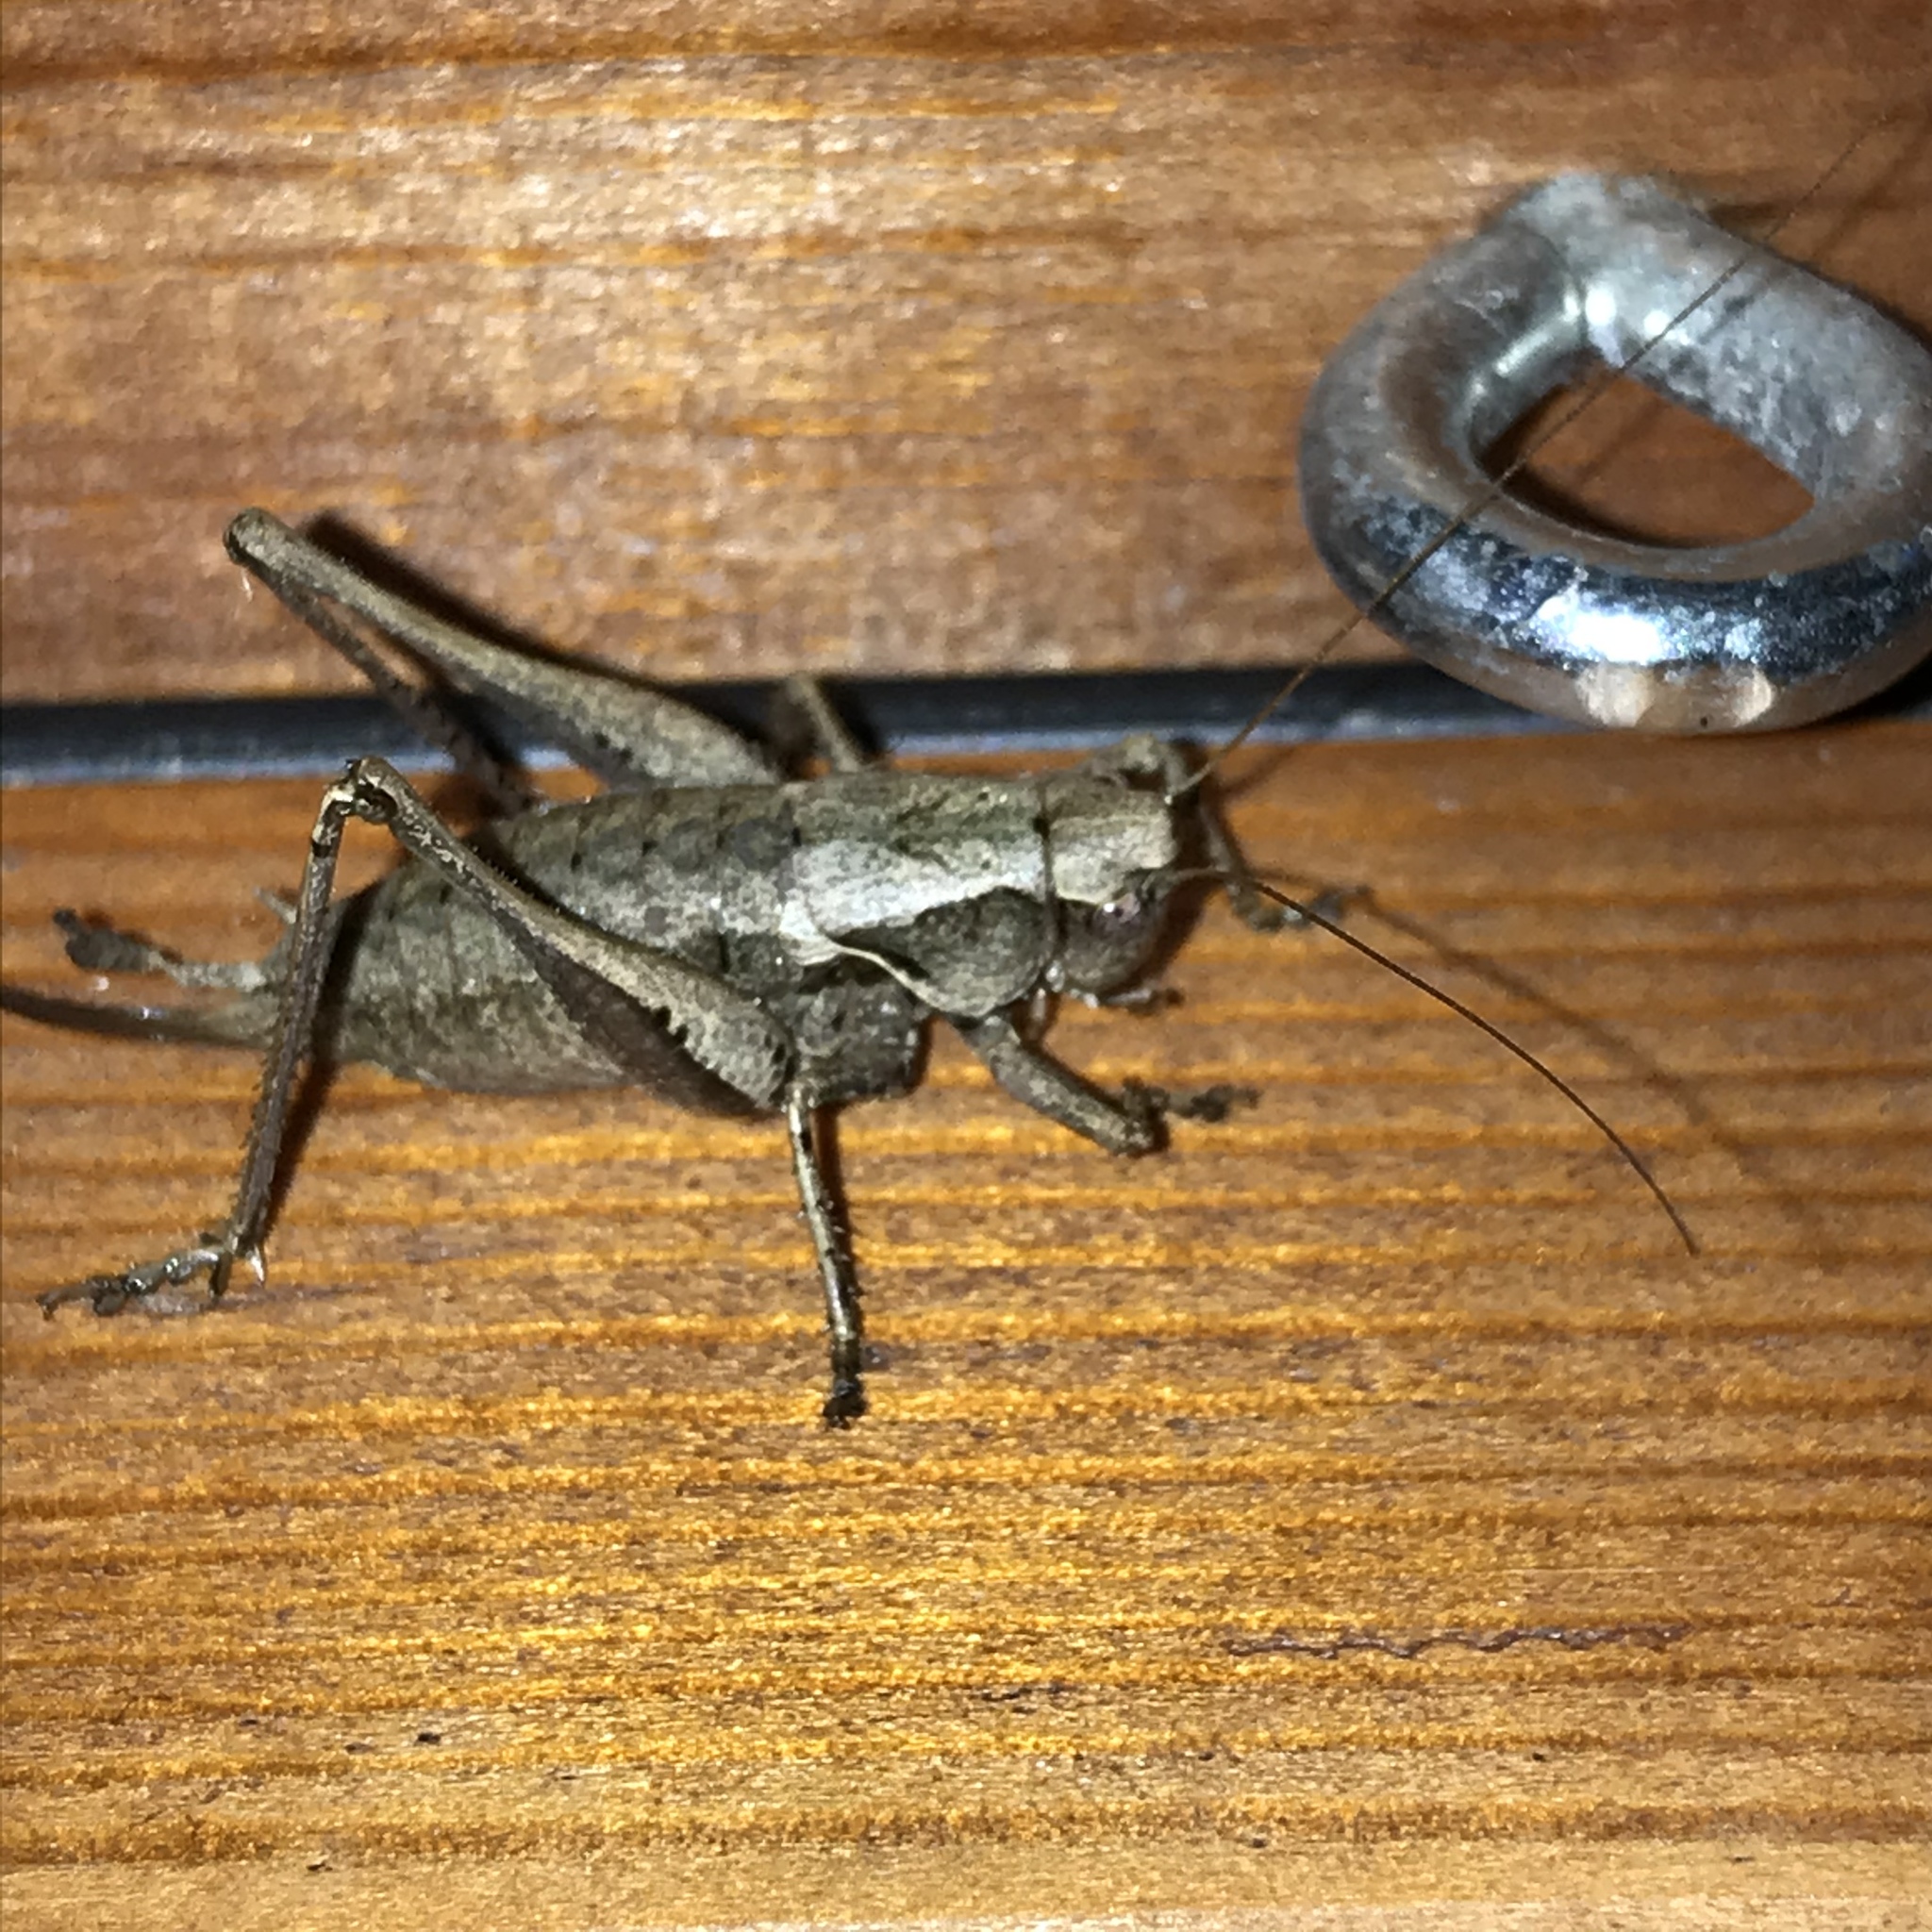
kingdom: Animalia
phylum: Arthropoda
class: Insecta
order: Orthoptera
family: Tettigoniidae
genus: Pholidoptera
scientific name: Pholidoptera griseoaptera
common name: Dark bush-cricket
